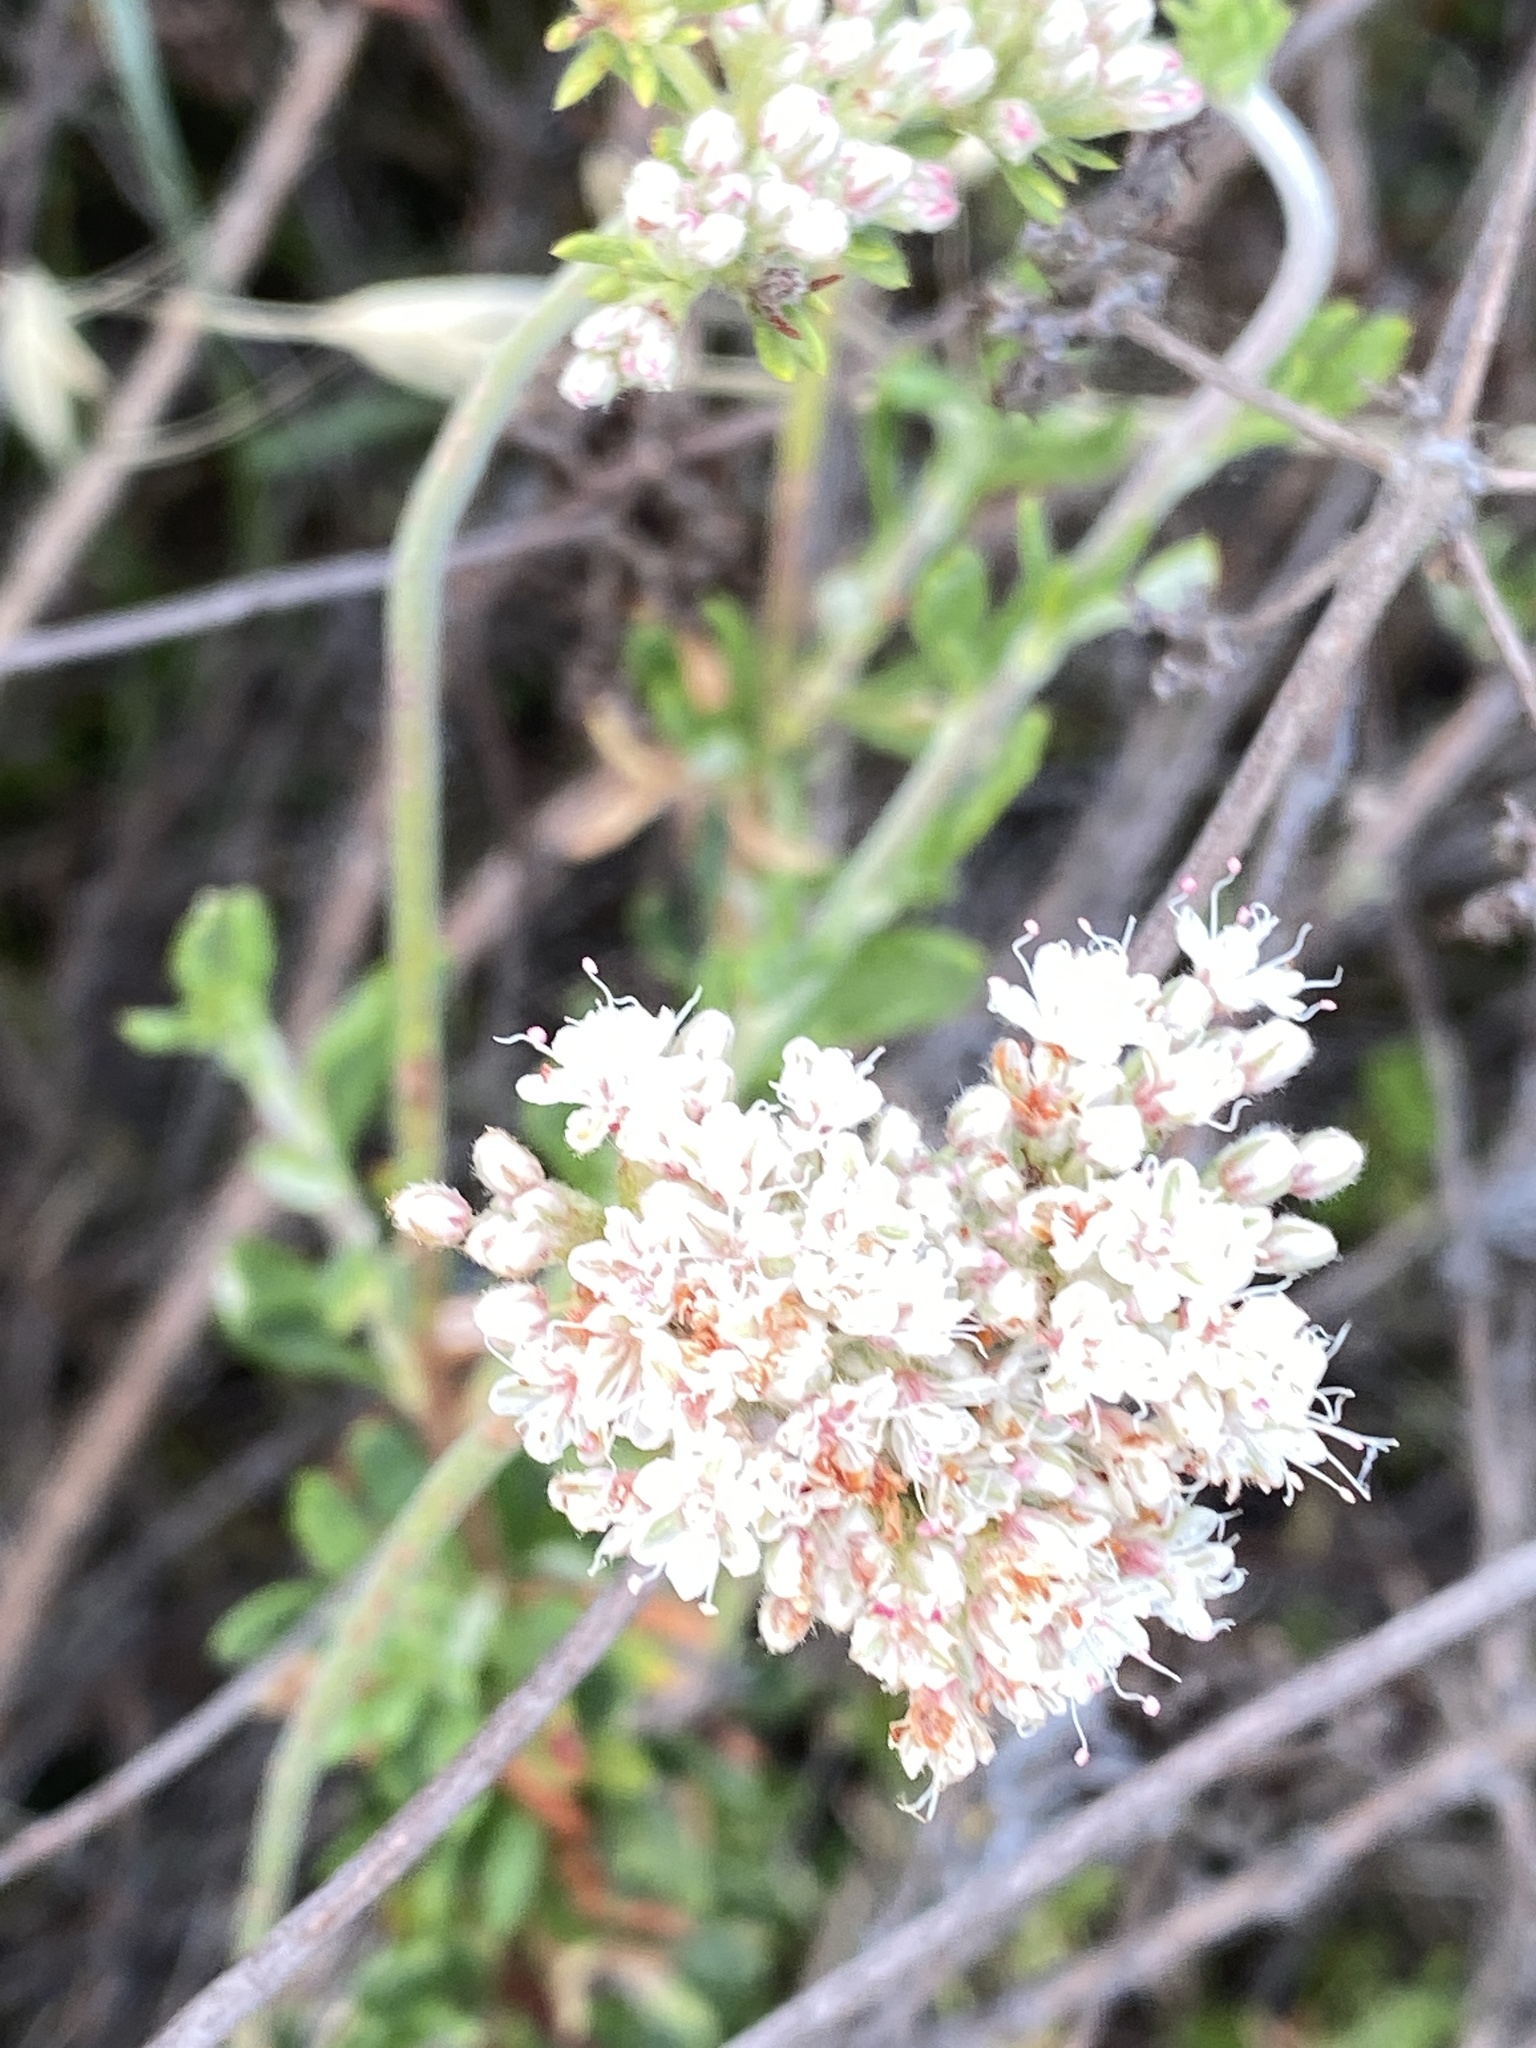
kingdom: Plantae
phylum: Tracheophyta
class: Magnoliopsida
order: Caryophyllales
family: Polygonaceae
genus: Eriogonum
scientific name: Eriogonum fasciculatum
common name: California wild buckwheat
